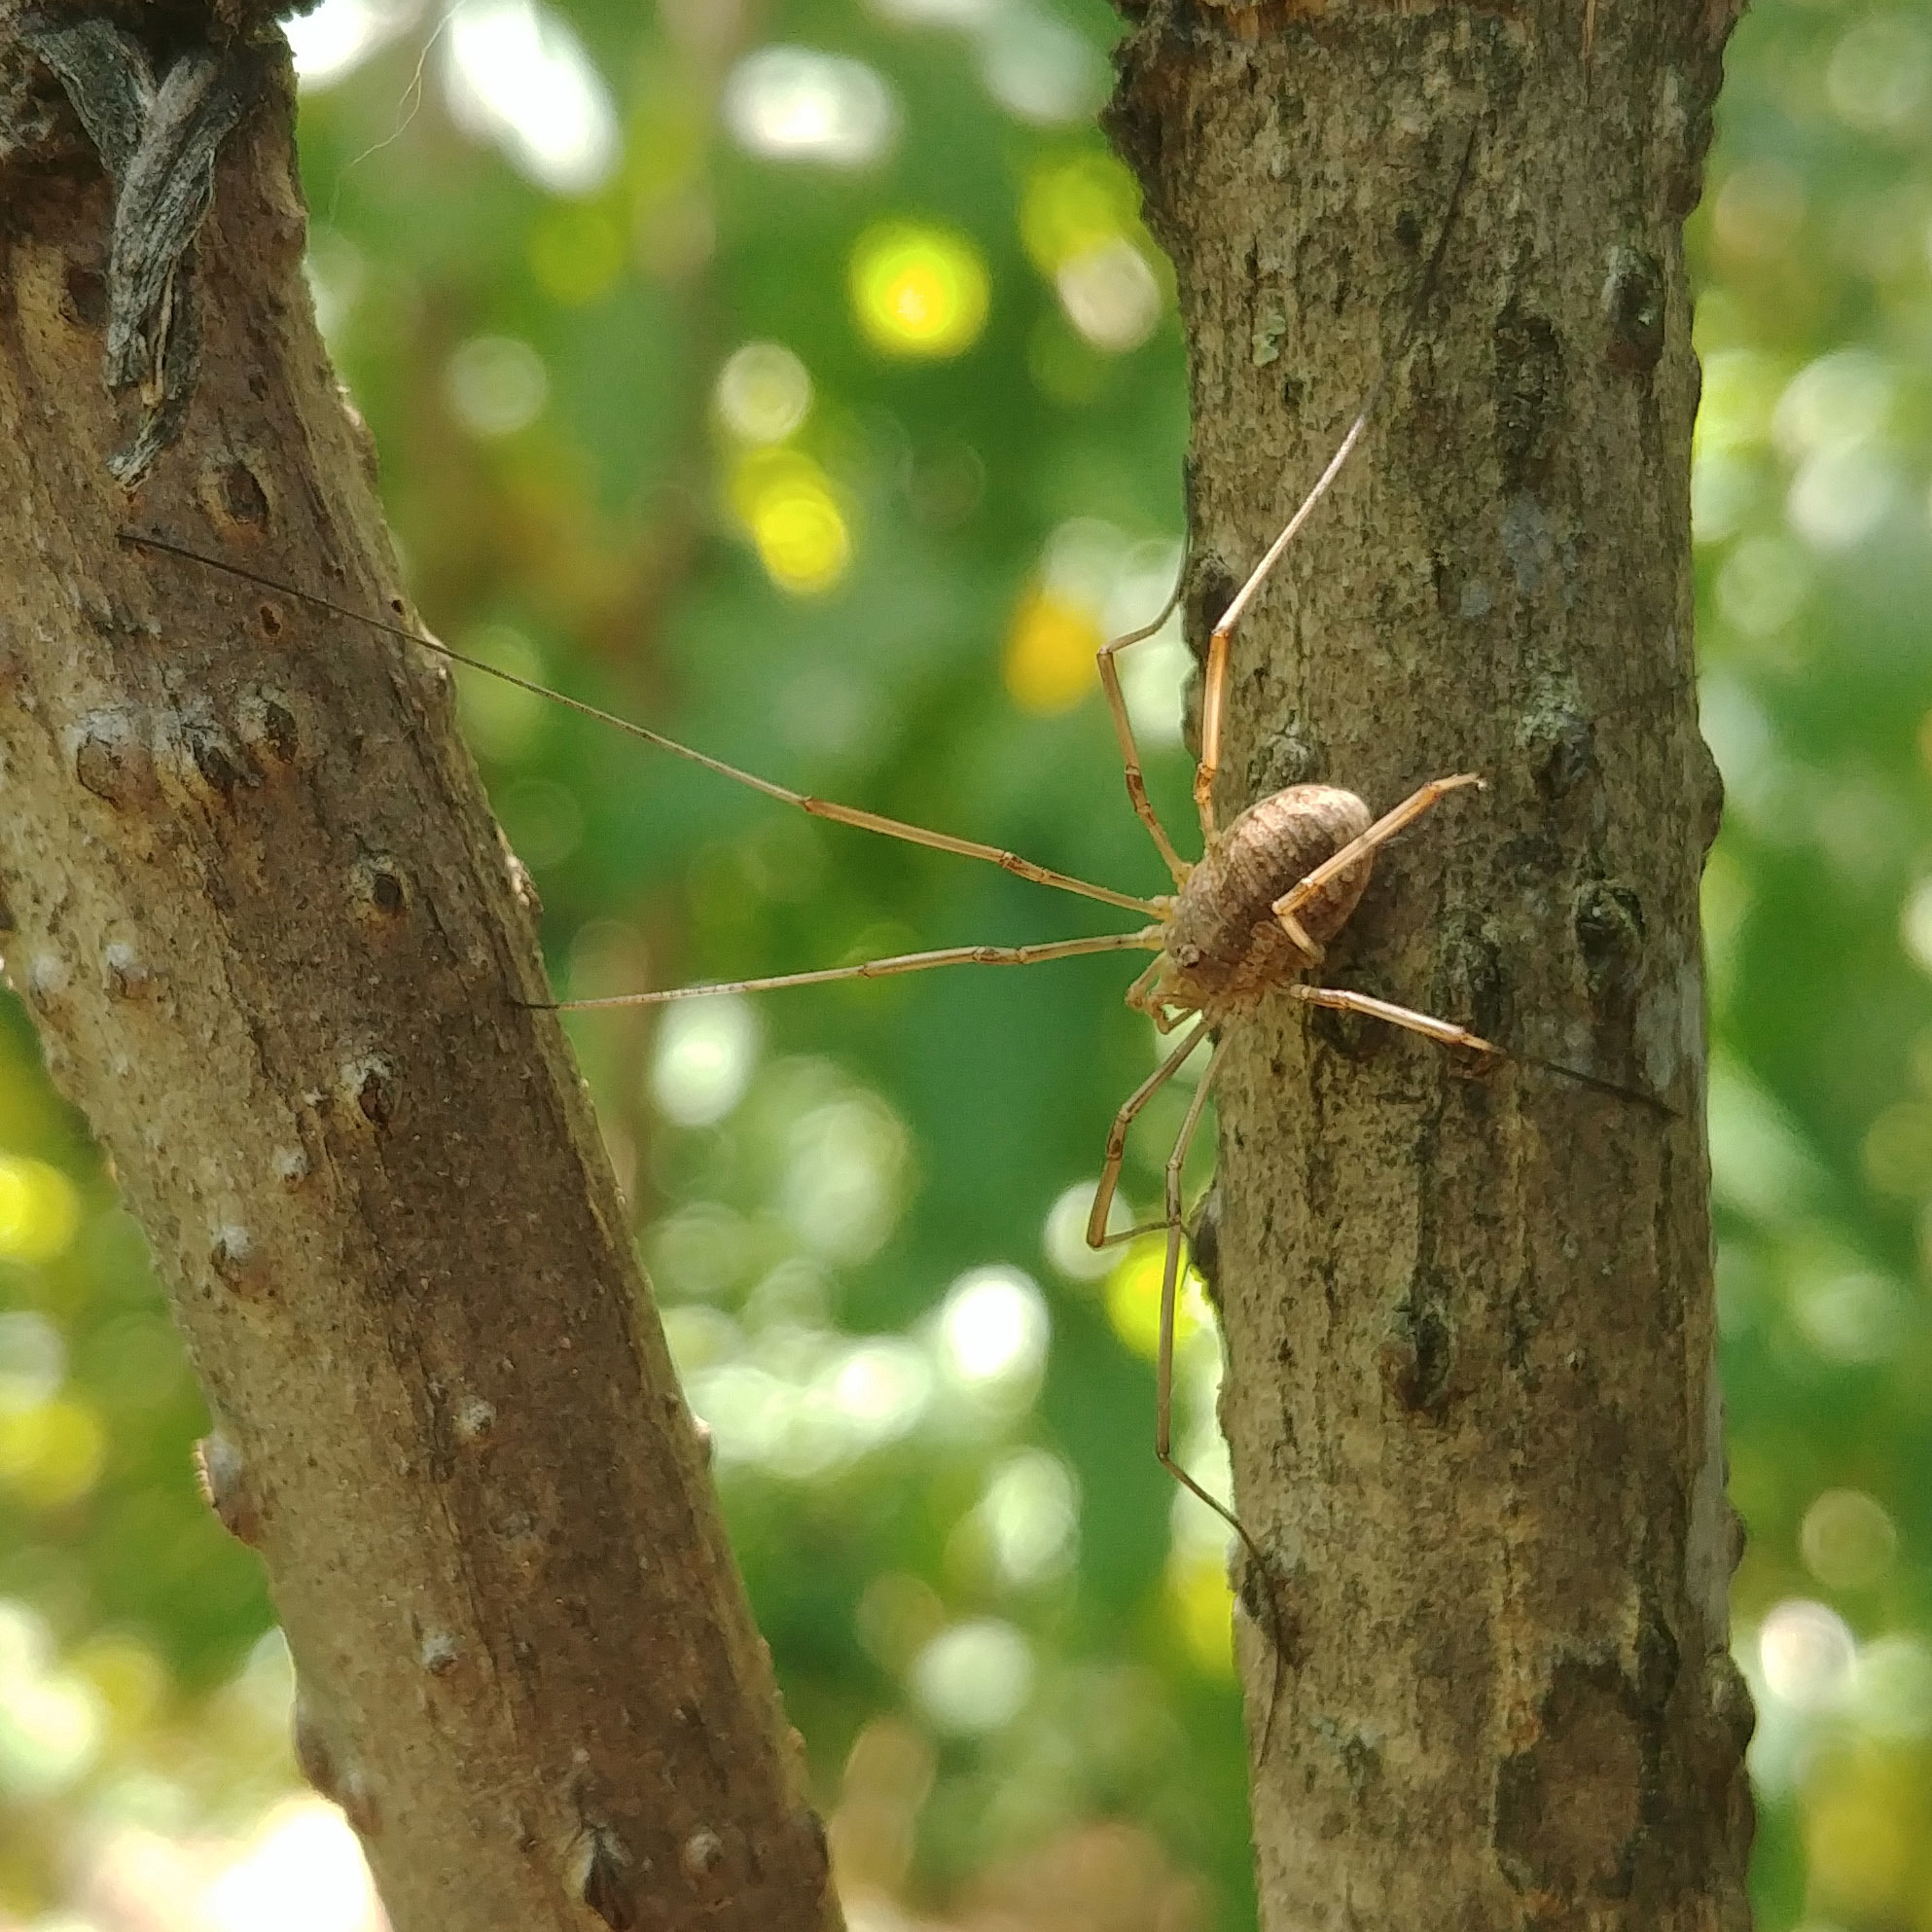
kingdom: Animalia
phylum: Arthropoda
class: Arachnida
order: Opiliones
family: Phalangiidae
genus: Phalangium
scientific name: Phalangium opilio
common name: Daddy longleg
